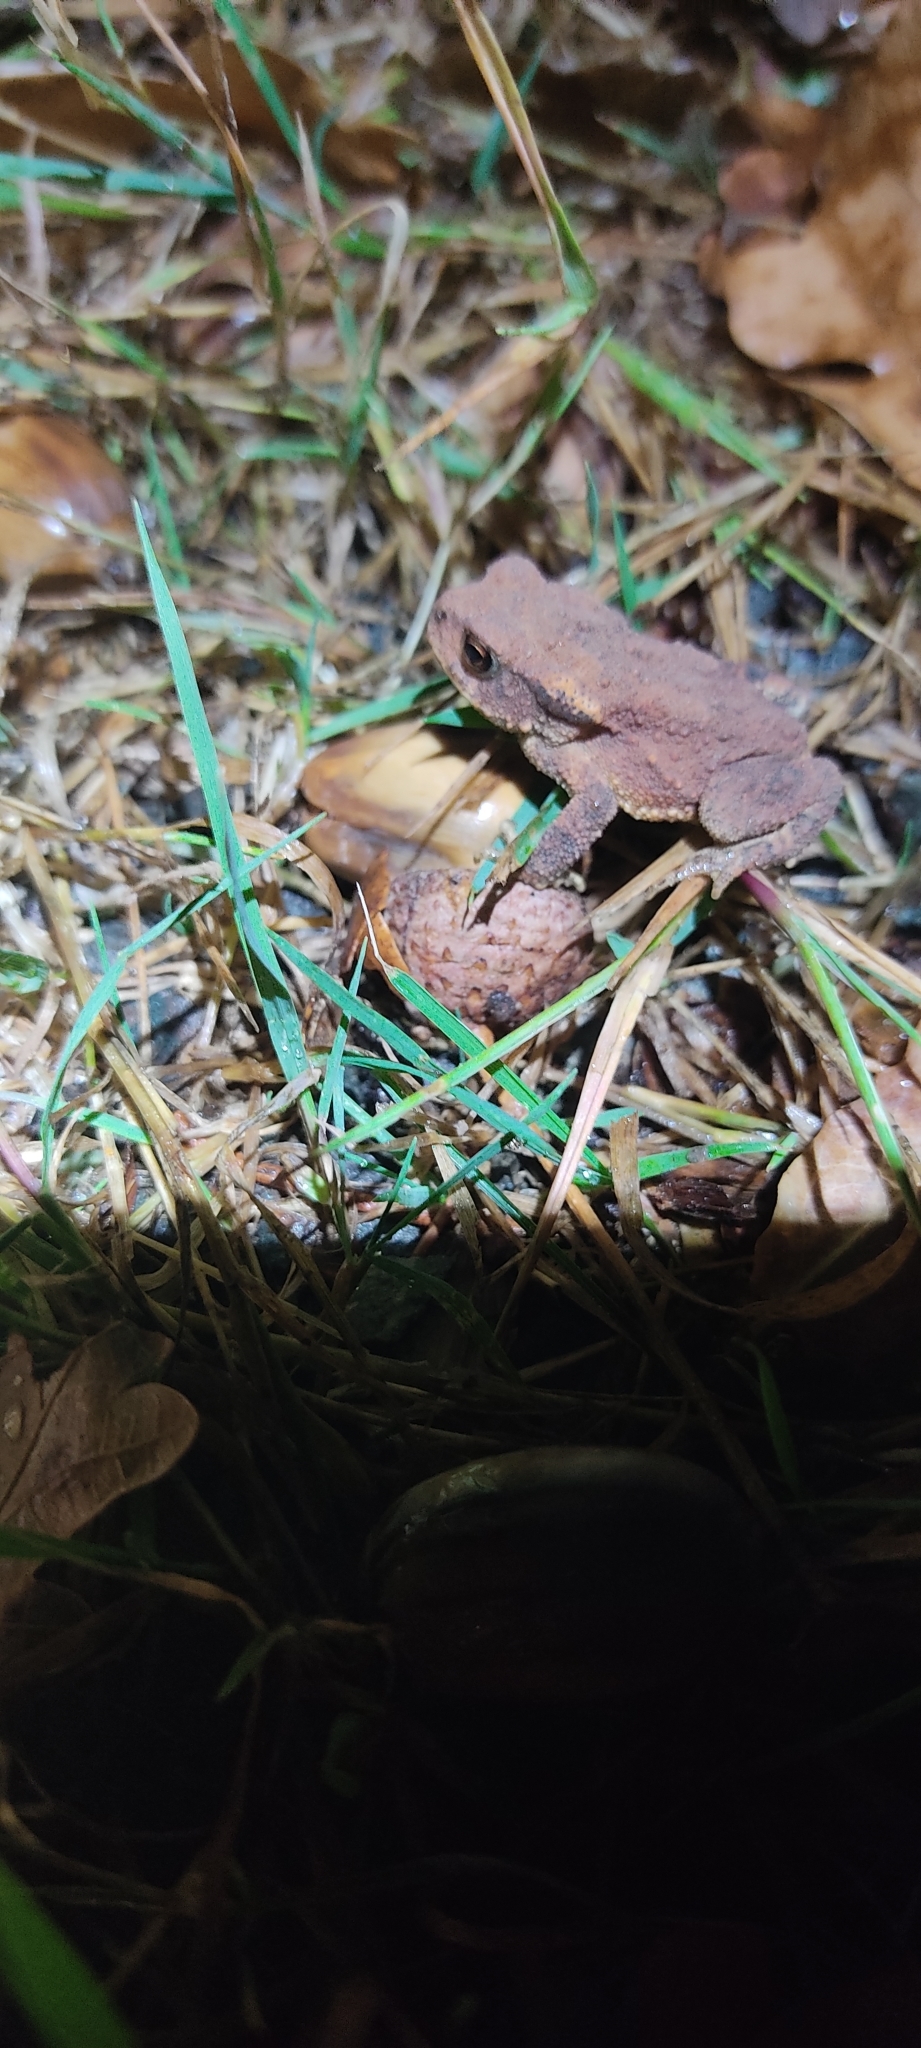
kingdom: Animalia
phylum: Chordata
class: Amphibia
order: Anura
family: Bufonidae
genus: Bufo
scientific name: Bufo spinosus
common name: Western common toad
